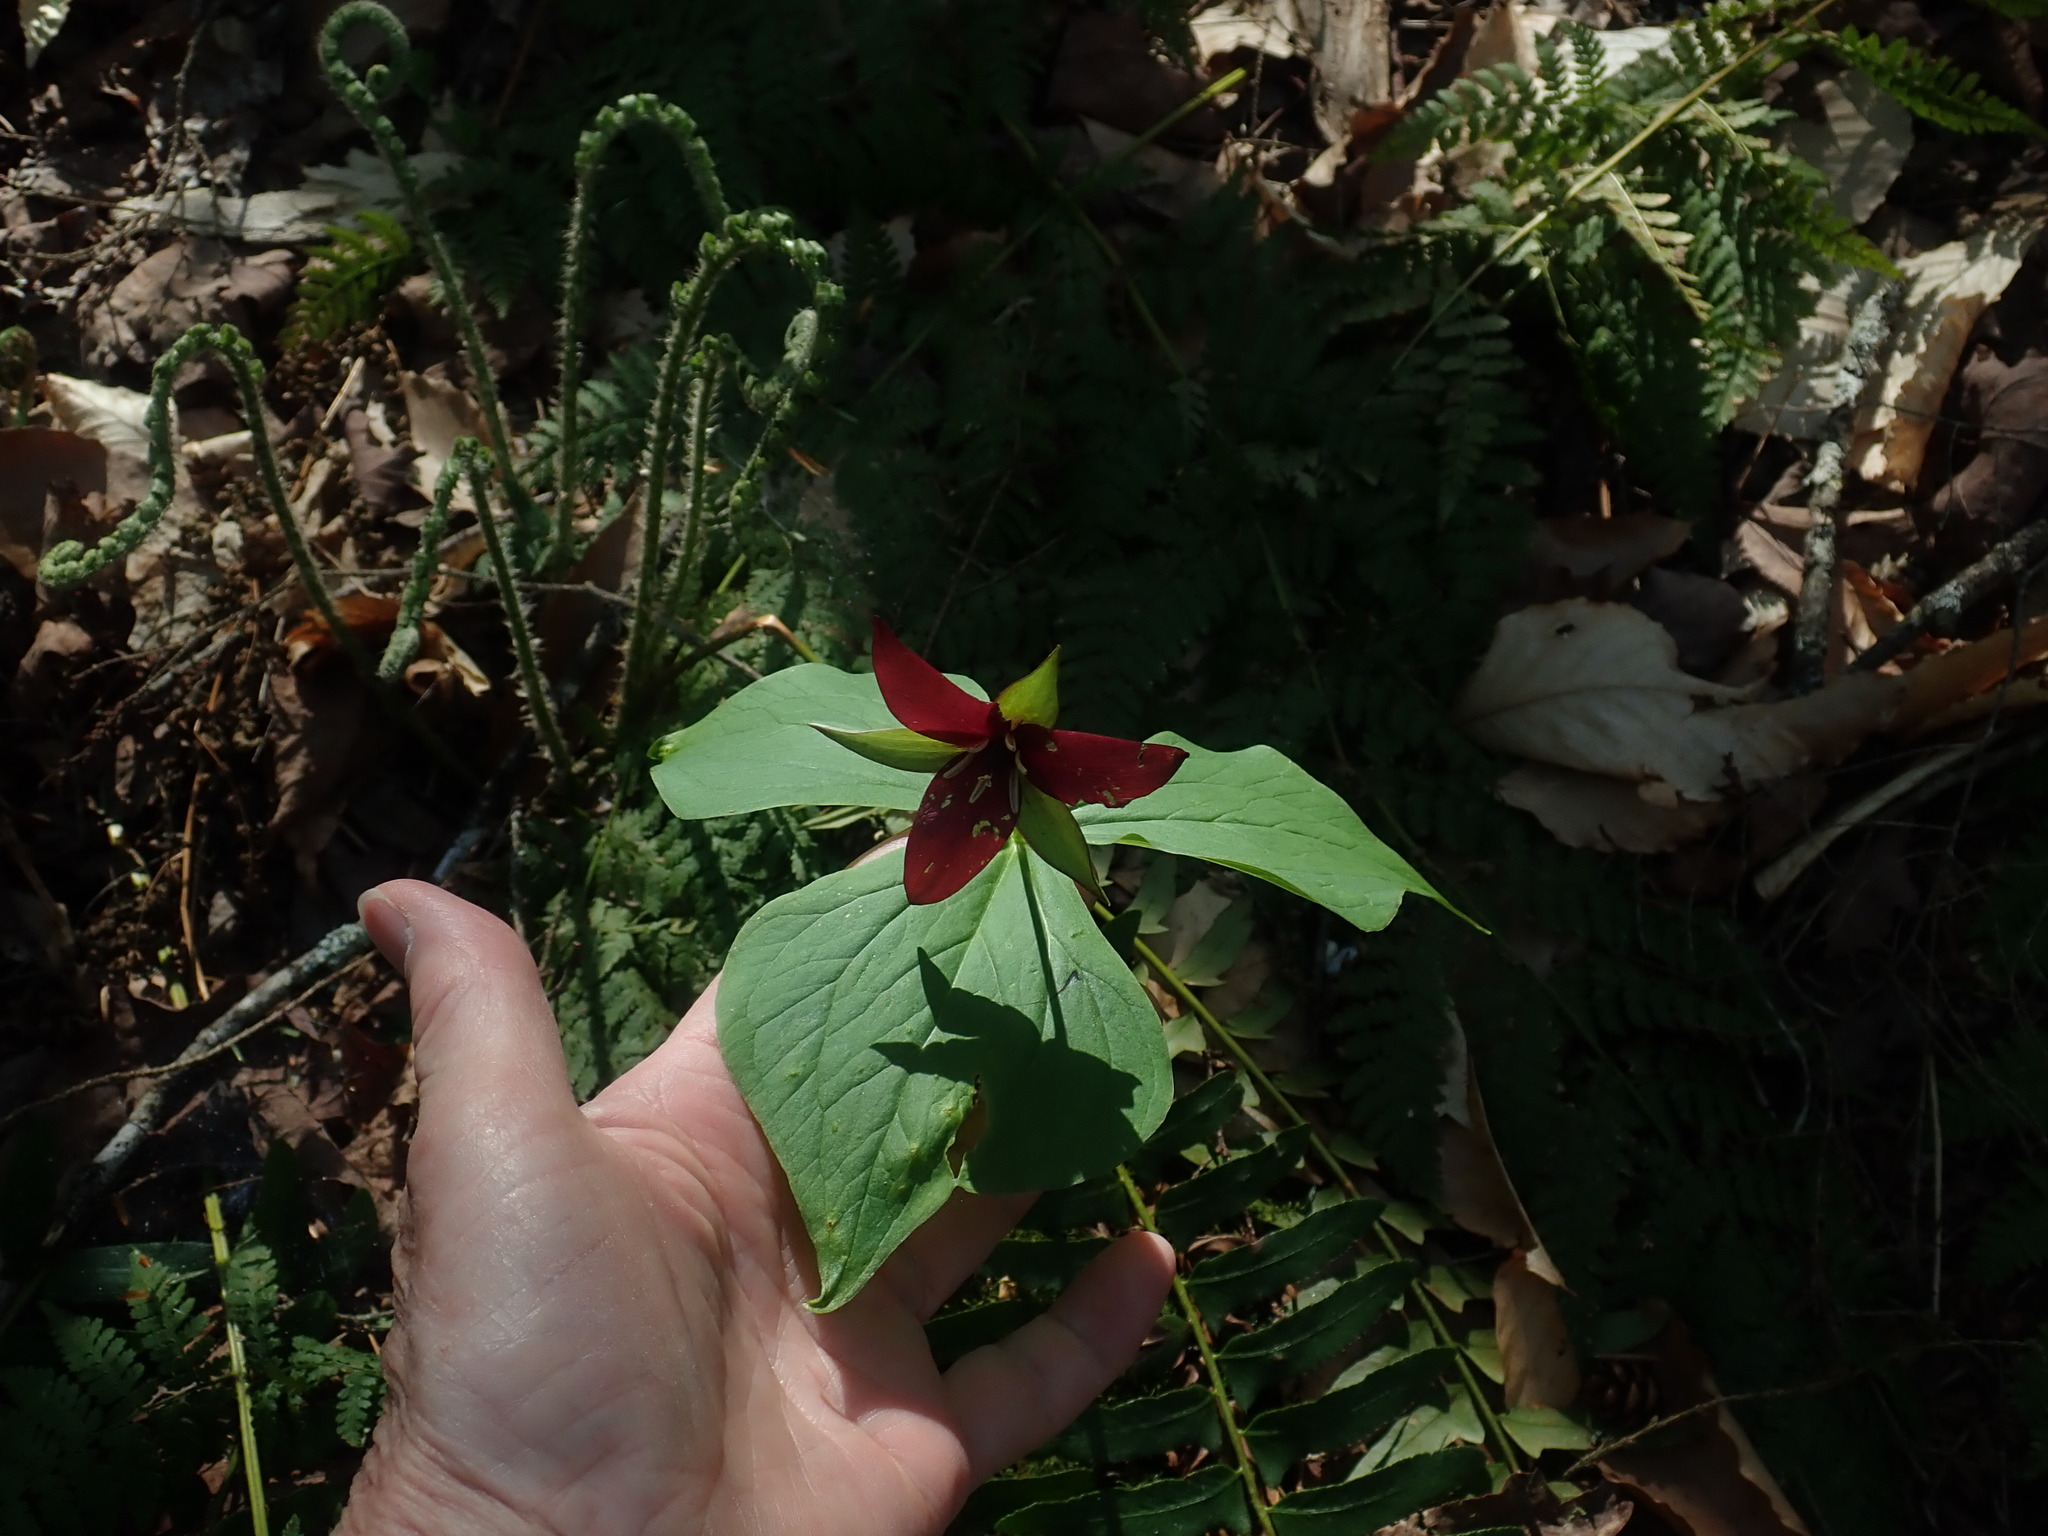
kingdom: Plantae
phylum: Tracheophyta
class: Liliopsida
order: Liliales
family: Melanthiaceae
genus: Trillium
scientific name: Trillium erectum
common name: Purple trillium
